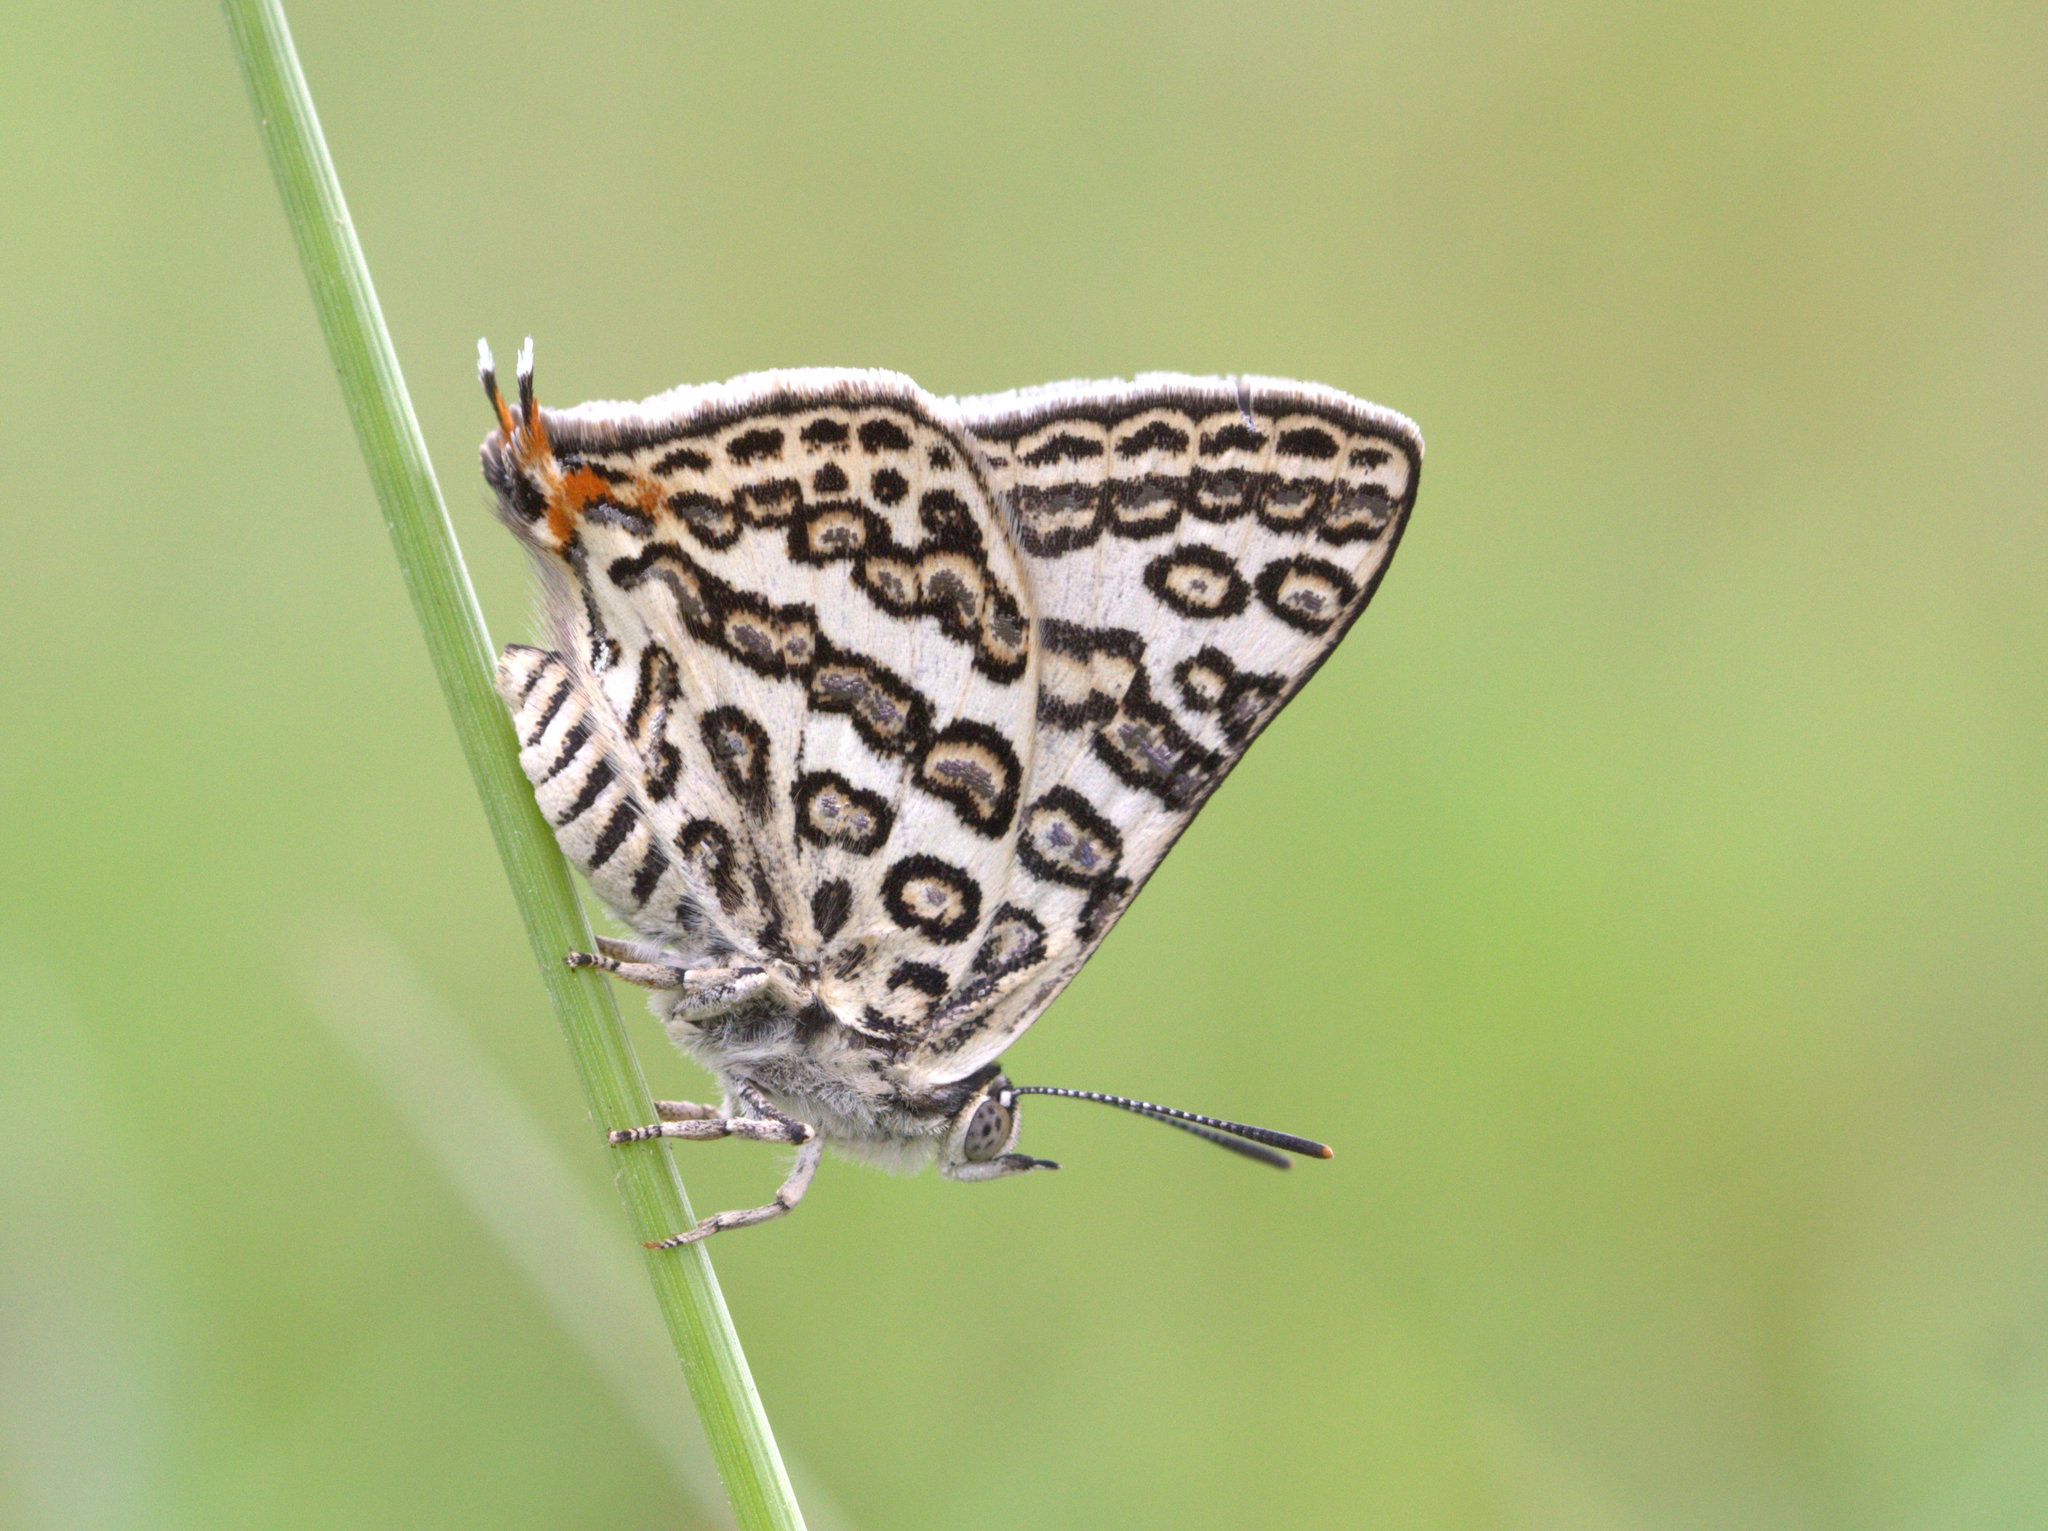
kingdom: Animalia
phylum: Arthropoda
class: Insecta
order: Lepidoptera
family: Lycaenidae
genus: Aphnaeus
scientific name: Aphnaeus lilacinus
